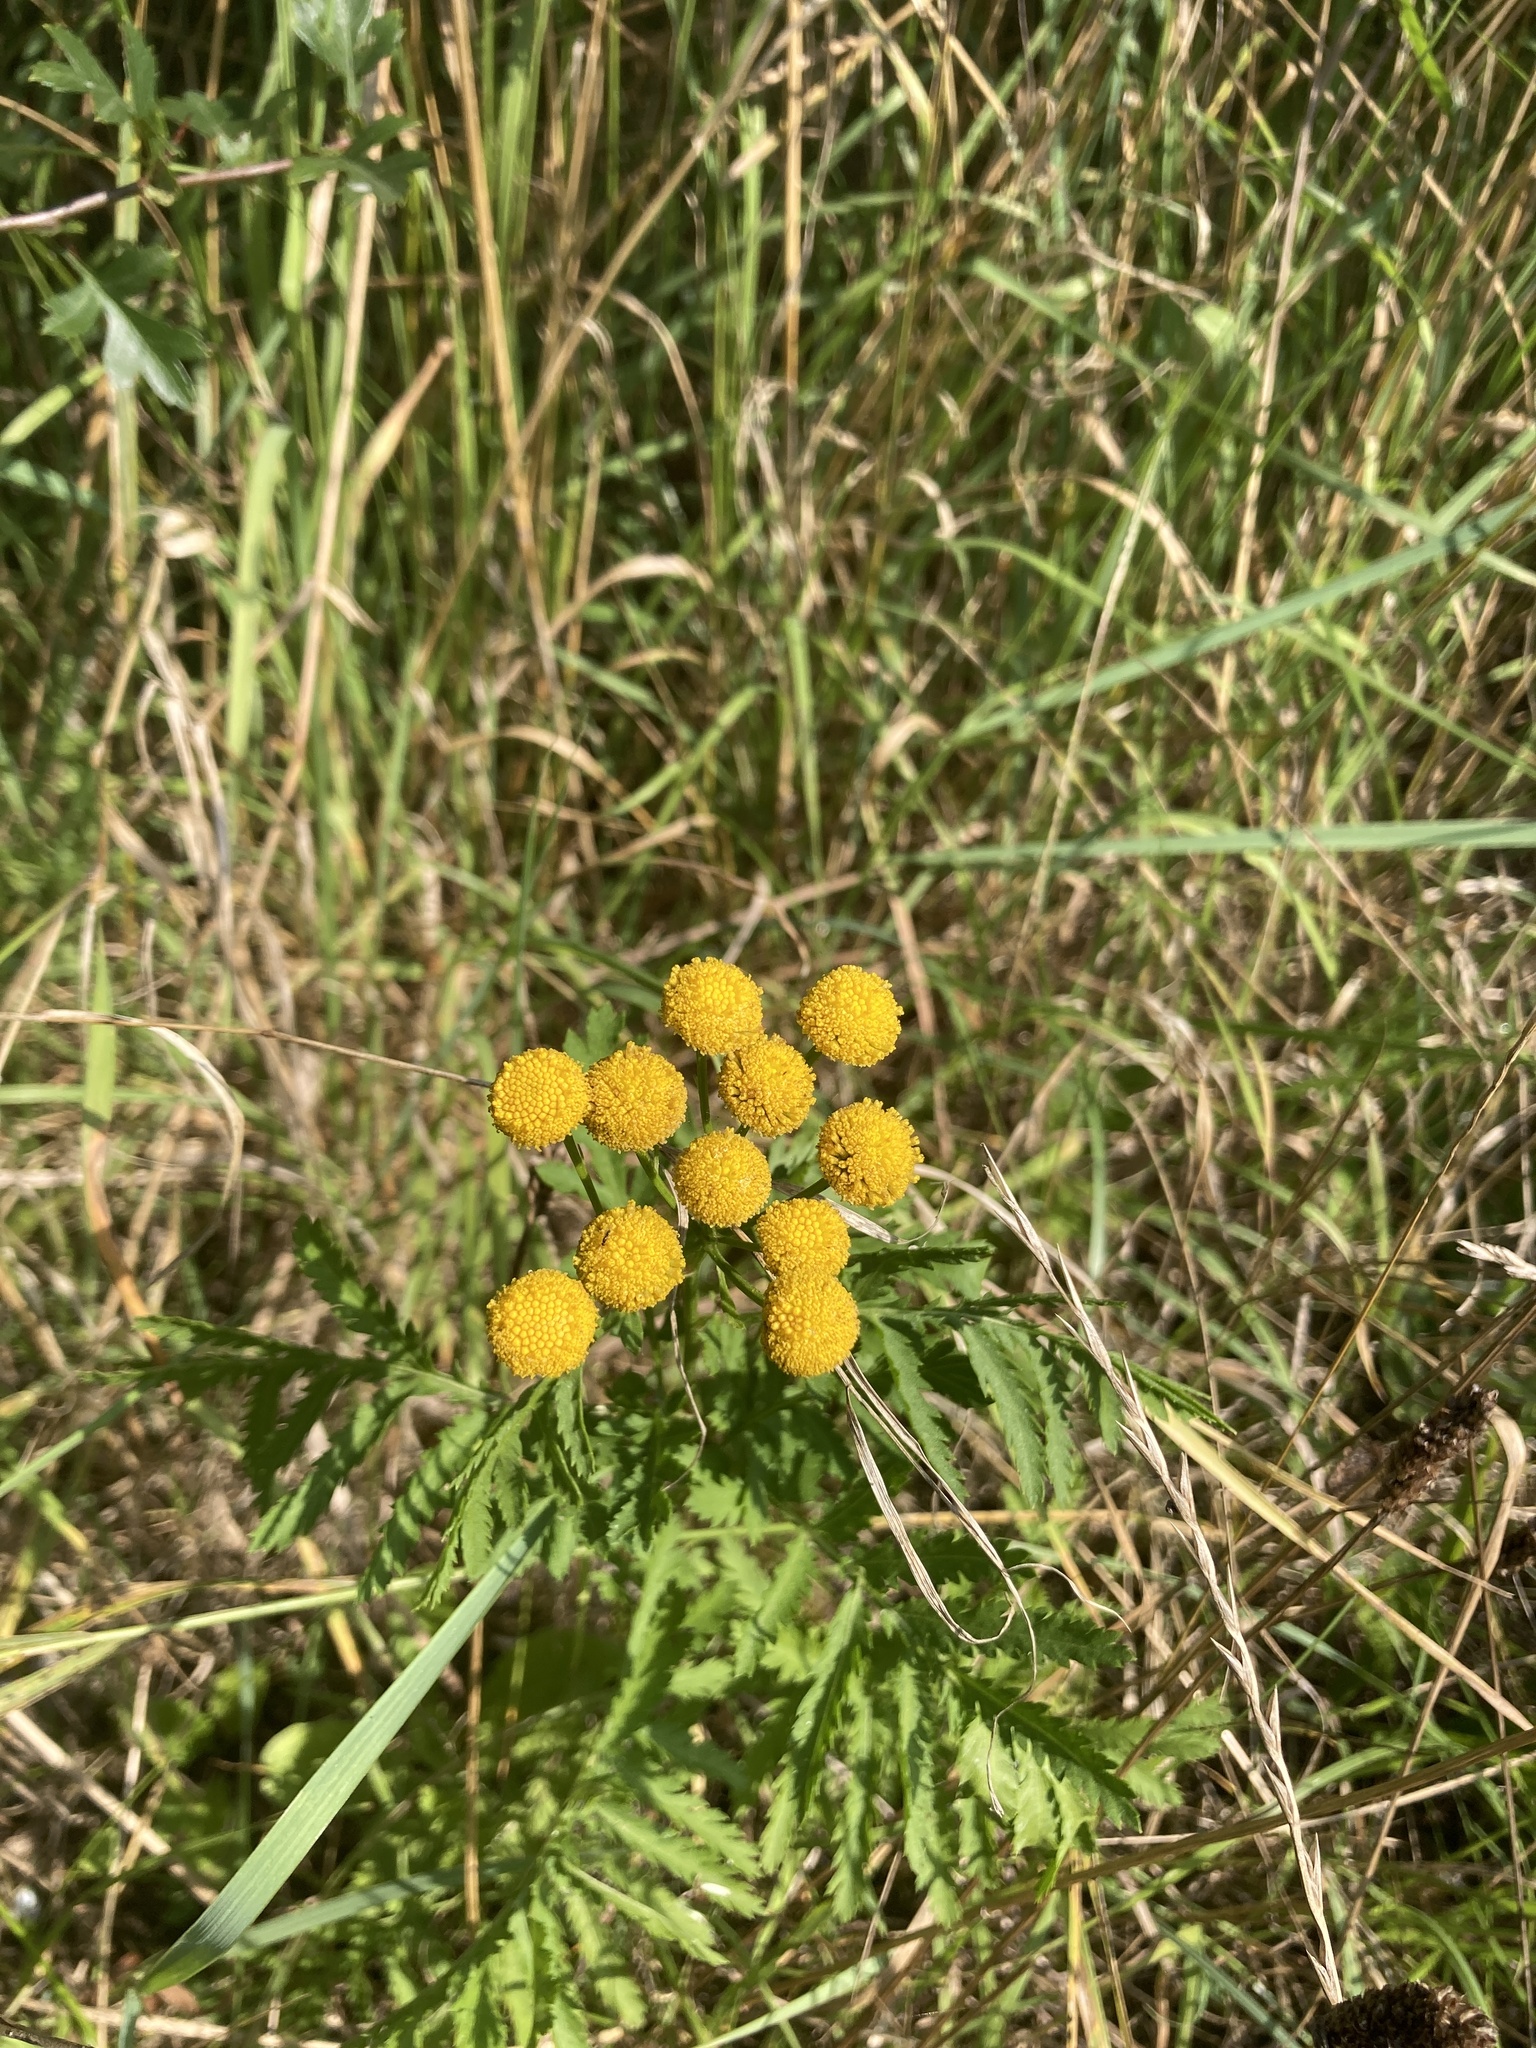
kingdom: Plantae
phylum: Tracheophyta
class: Magnoliopsida
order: Asterales
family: Asteraceae
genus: Tanacetum
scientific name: Tanacetum vulgare
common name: Common tansy
